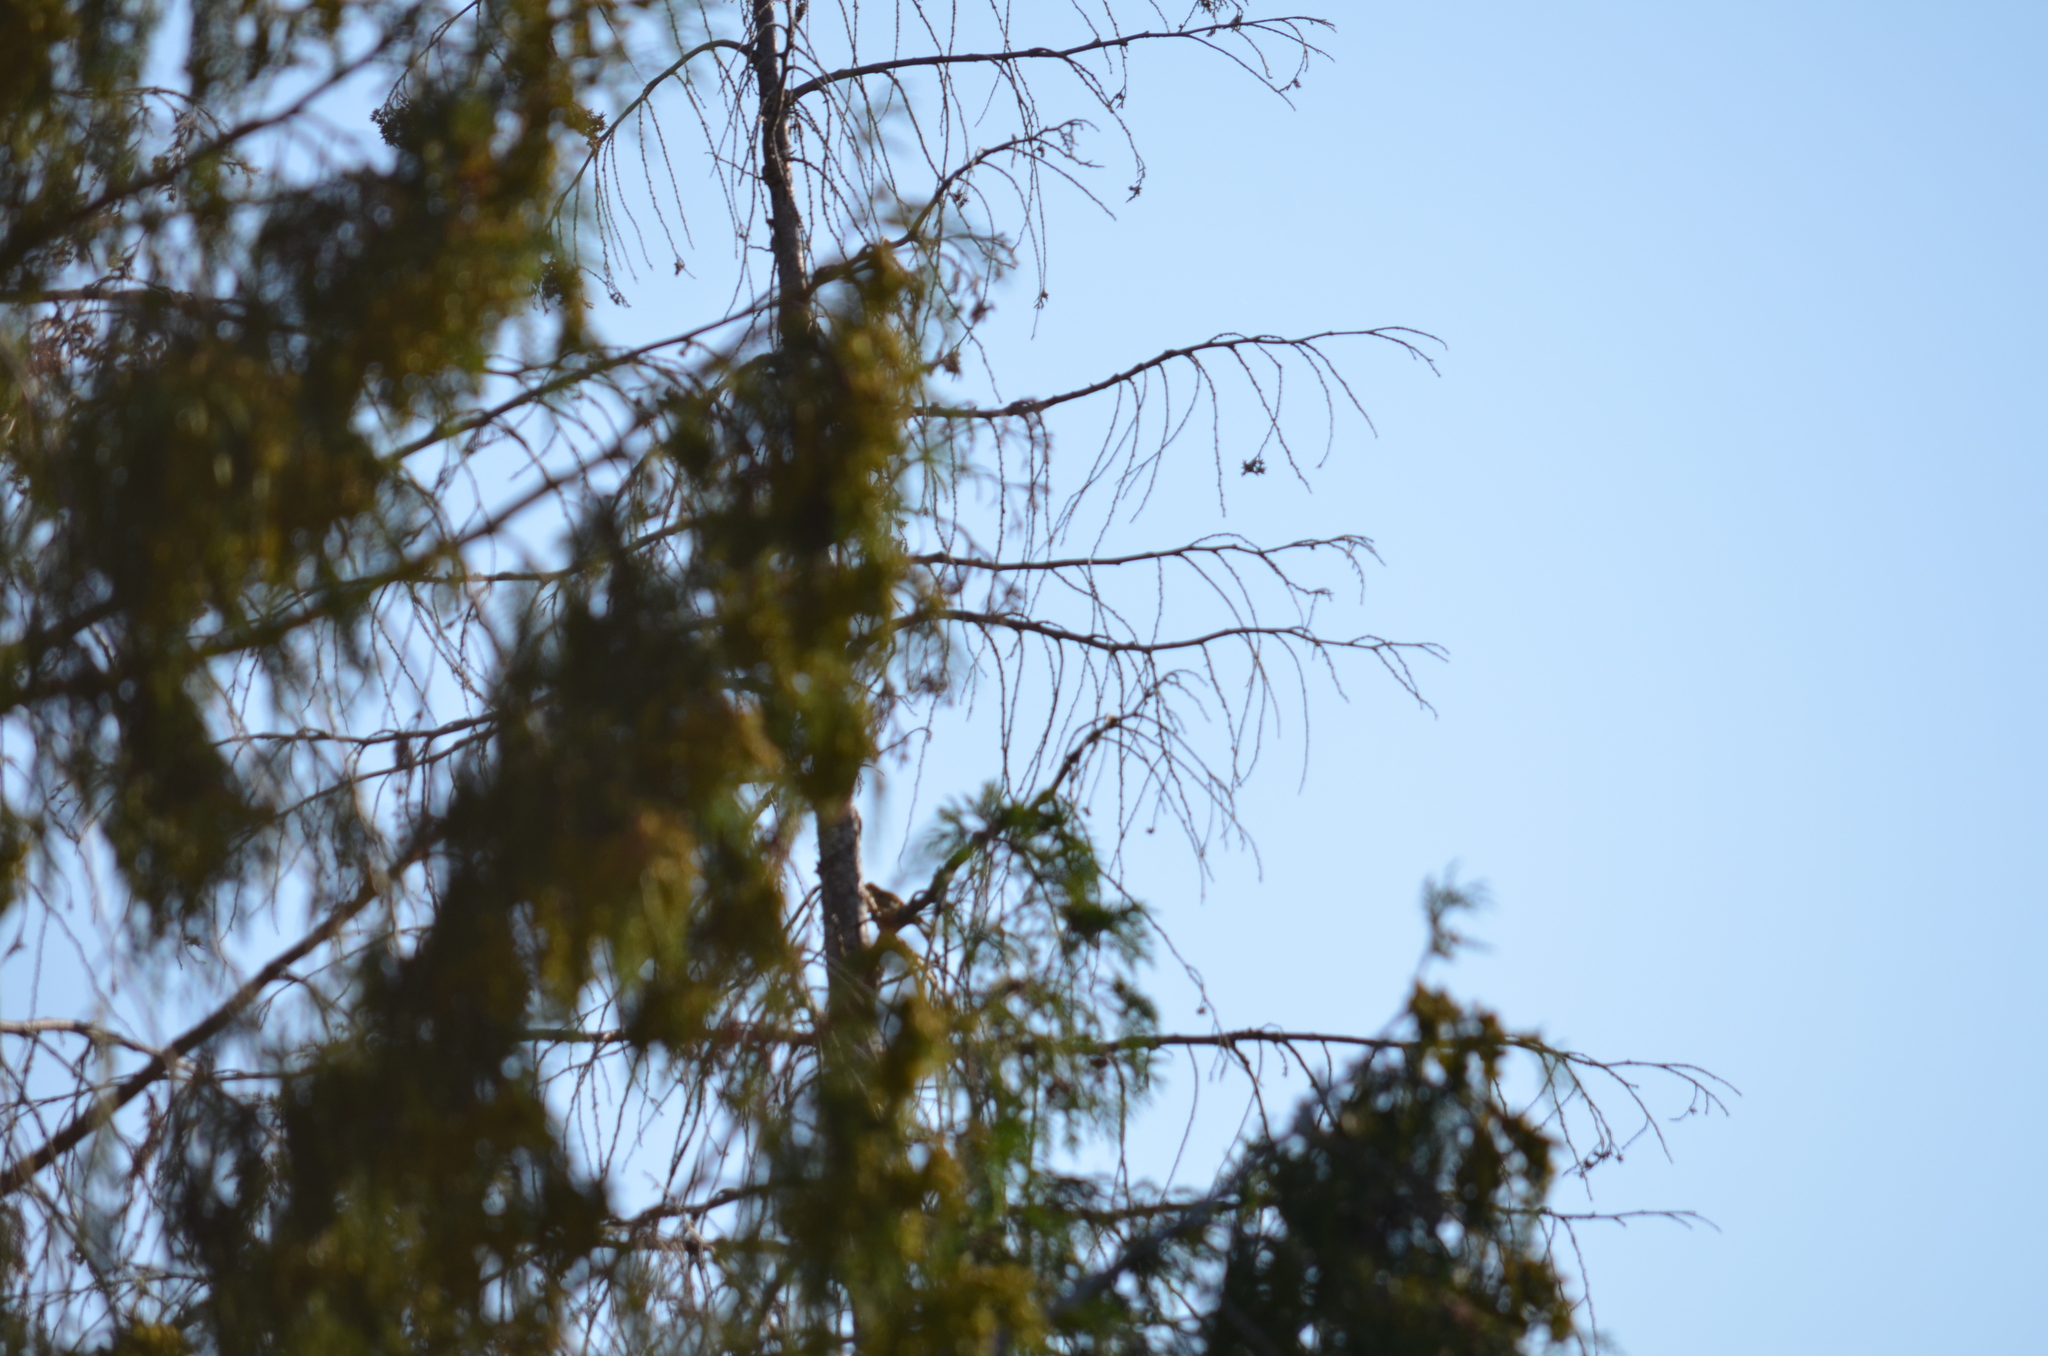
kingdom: Animalia
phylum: Chordata
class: Aves
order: Passeriformes
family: Fringillidae
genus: Spinus
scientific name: Spinus tristis
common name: American goldfinch
